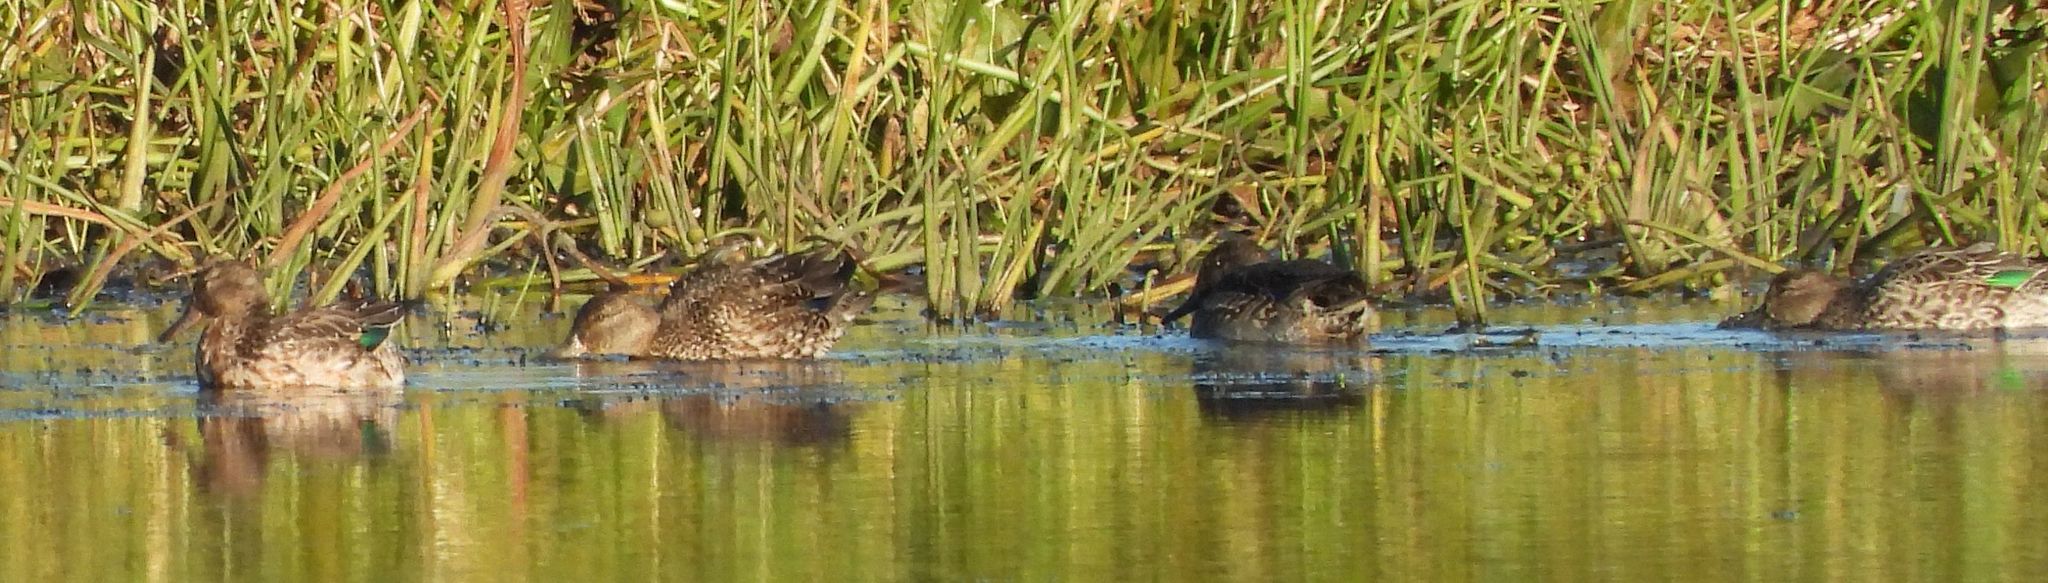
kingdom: Animalia
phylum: Chordata
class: Aves
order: Anseriformes
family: Anatidae
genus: Anas
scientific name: Anas crecca
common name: Eurasian teal
